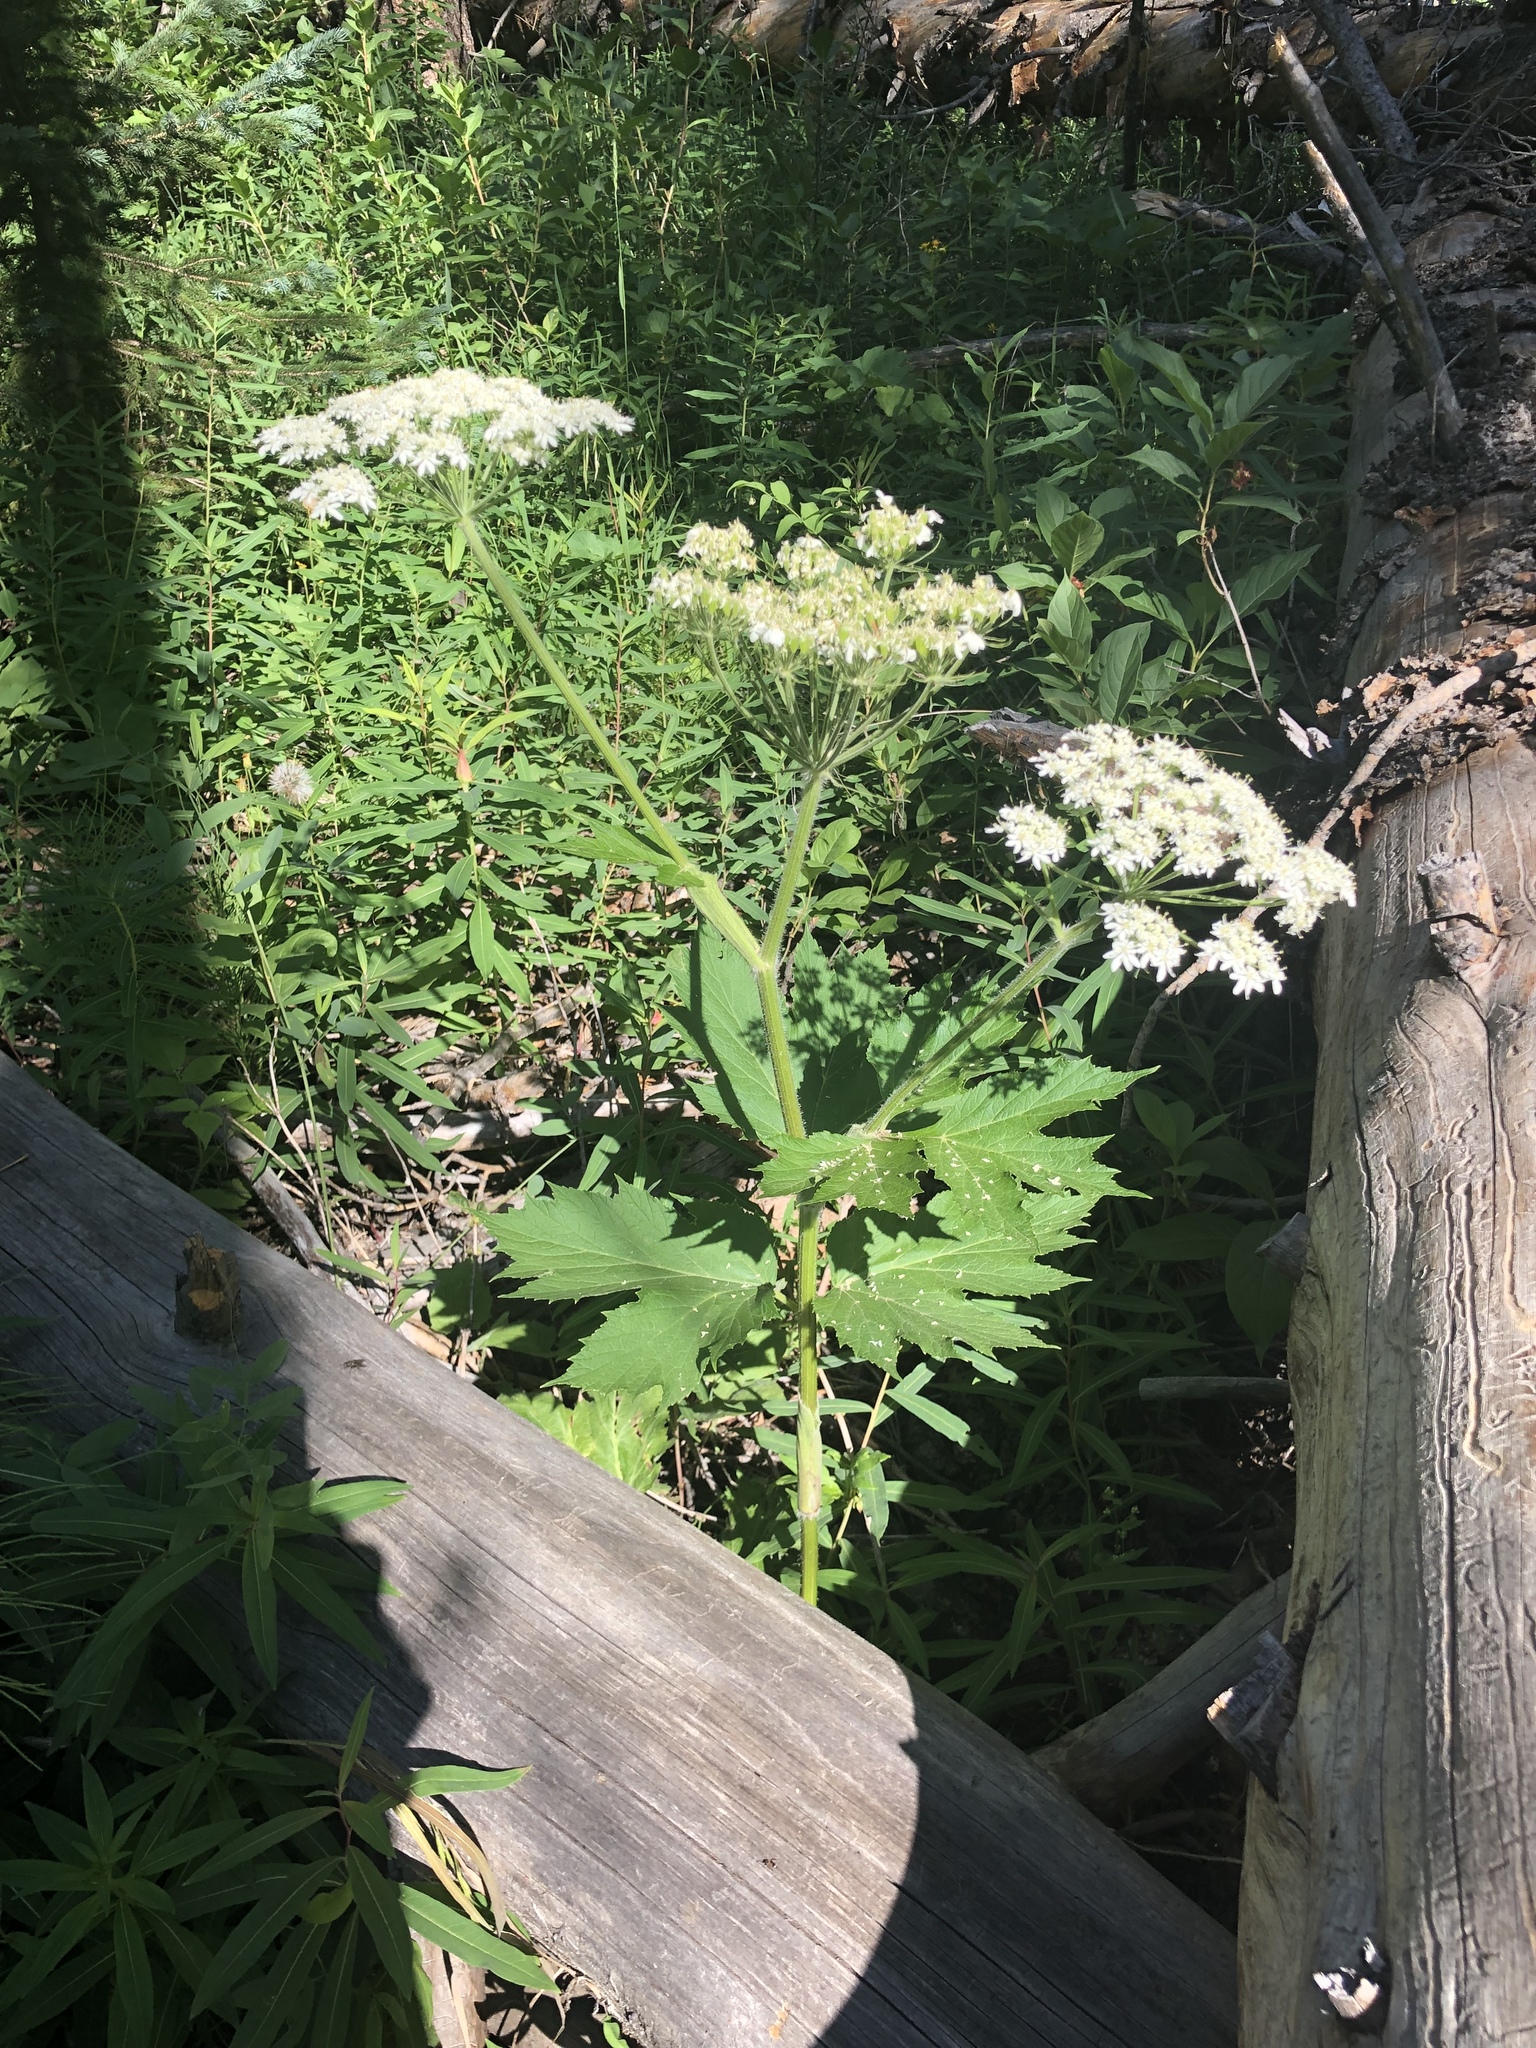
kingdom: Plantae
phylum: Tracheophyta
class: Magnoliopsida
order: Apiales
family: Apiaceae
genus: Heracleum
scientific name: Heracleum maximum
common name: American cow parsnip
